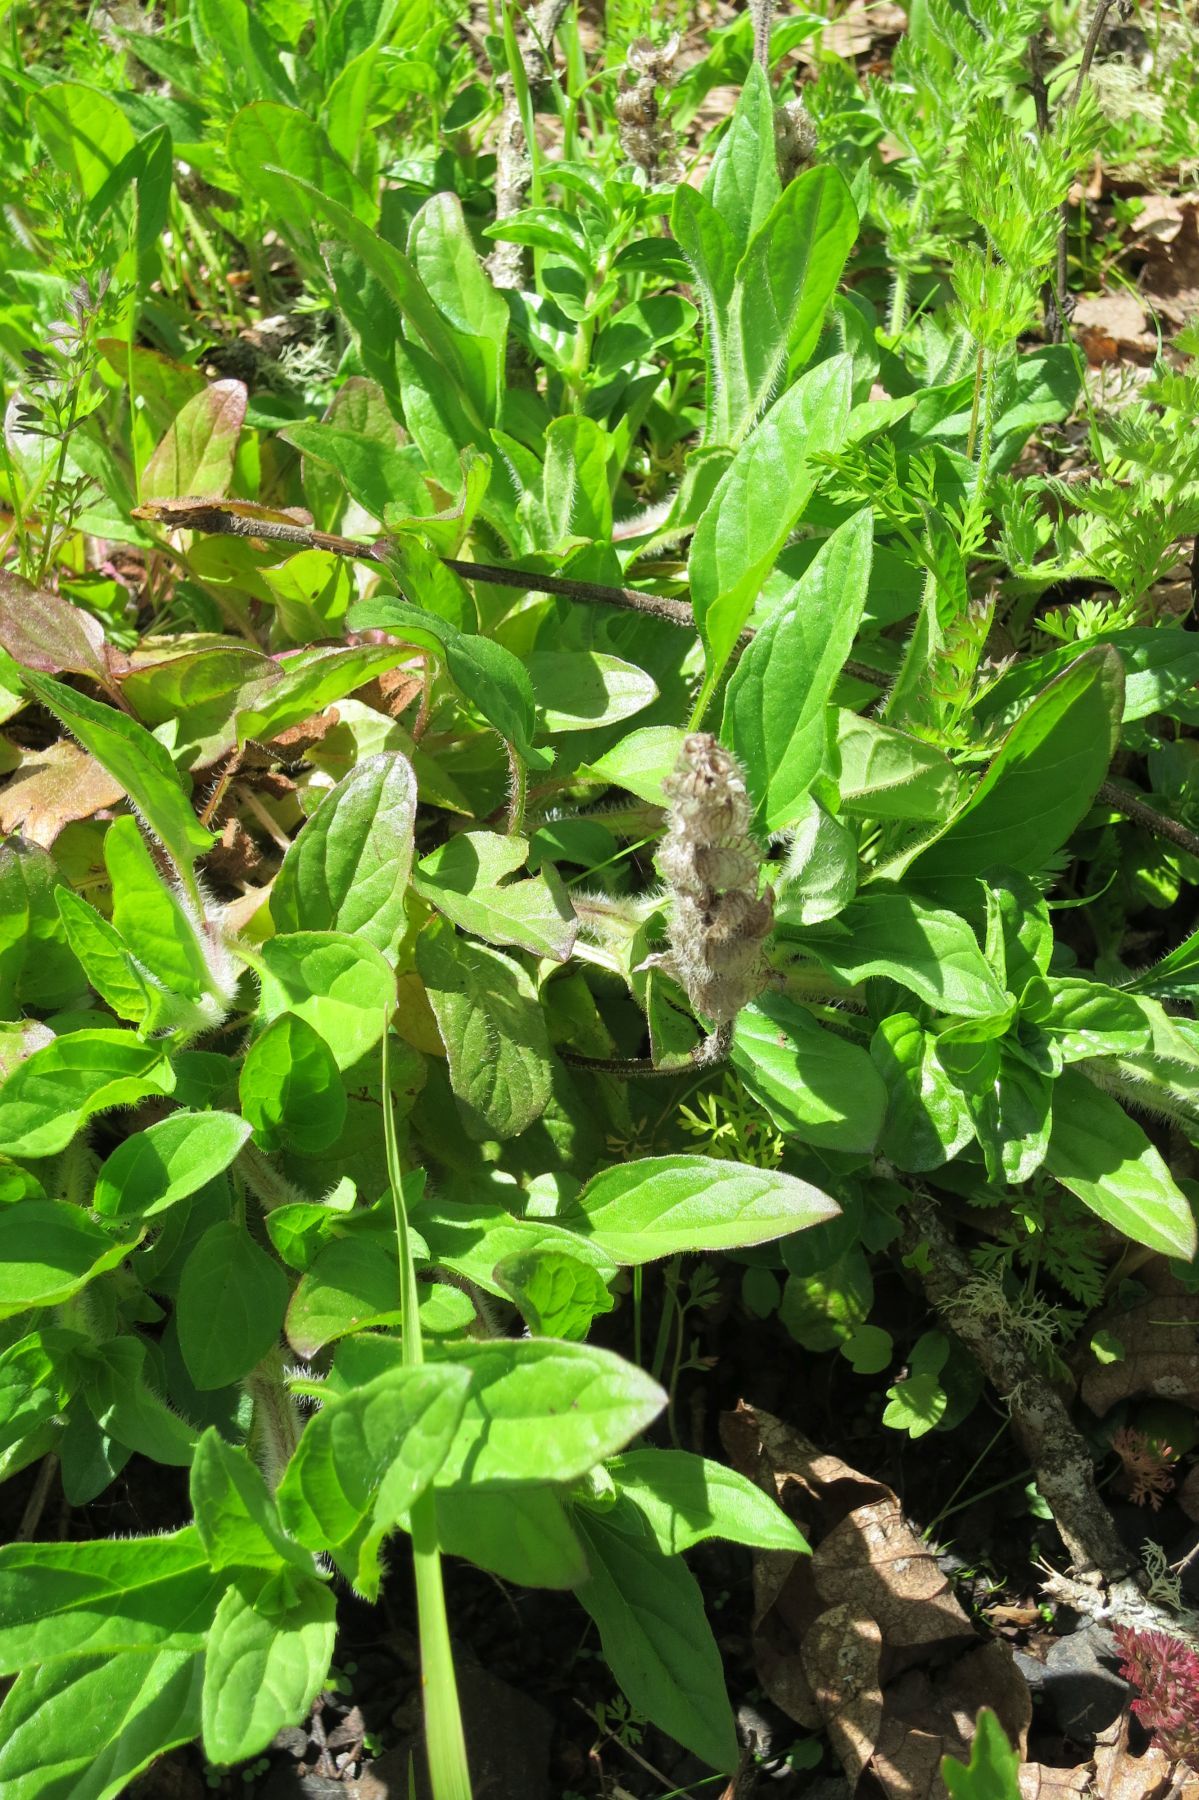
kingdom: Plantae
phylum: Tracheophyta
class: Magnoliopsida
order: Lamiales
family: Lamiaceae
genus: Prunella
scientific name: Prunella vulgaris
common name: Heal-all
